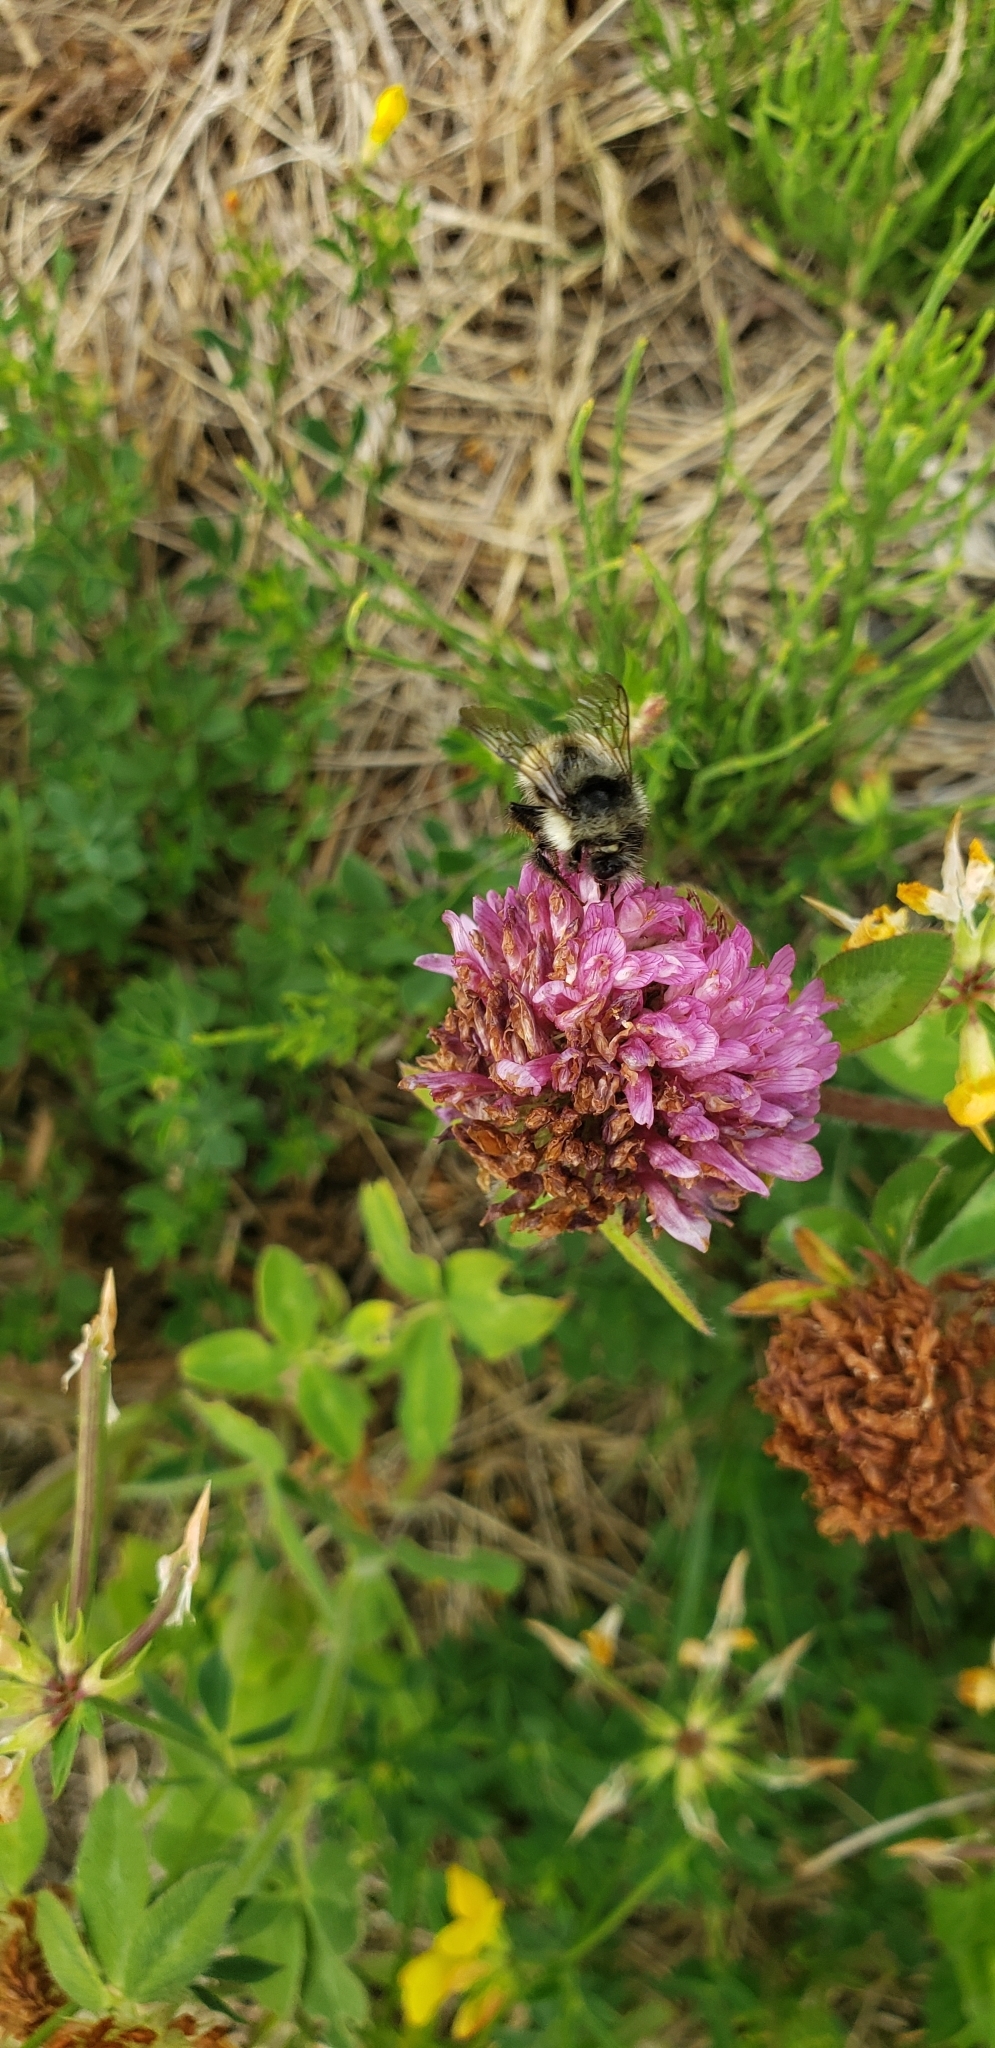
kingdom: Plantae
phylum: Tracheophyta
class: Magnoliopsida
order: Fabales
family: Fabaceae
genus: Trifolium
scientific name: Trifolium pratense
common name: Red clover
